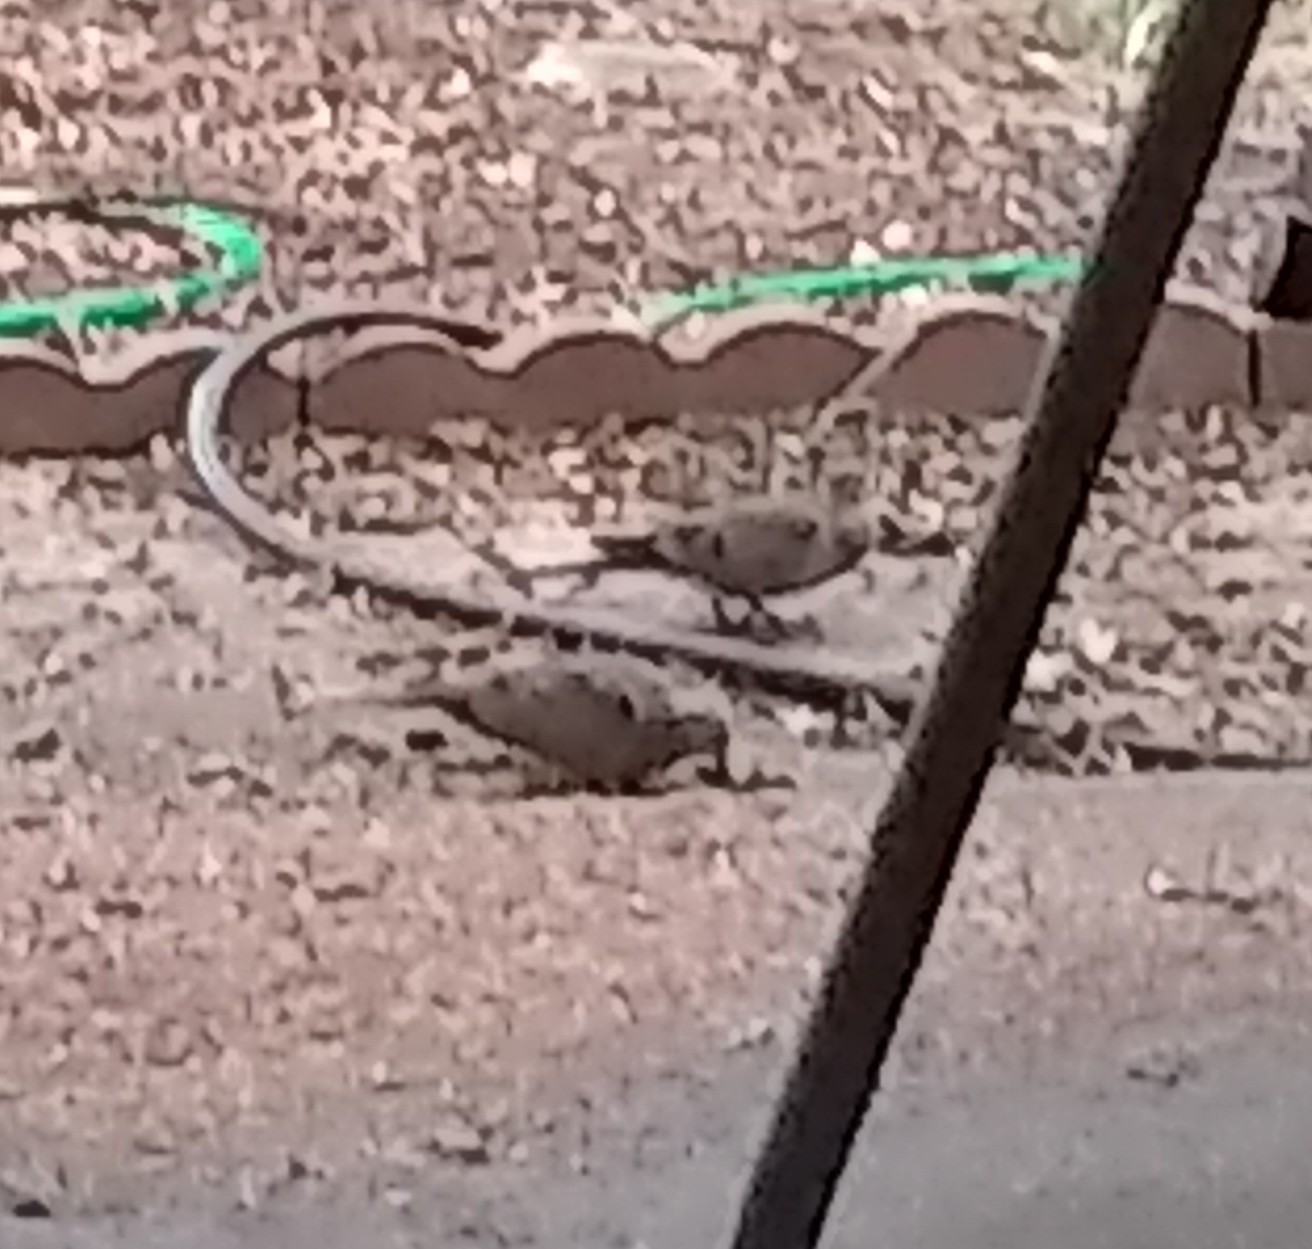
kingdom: Animalia
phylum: Chordata
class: Aves
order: Columbiformes
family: Columbidae
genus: Zenaida
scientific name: Zenaida macroura
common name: Mourning dove
